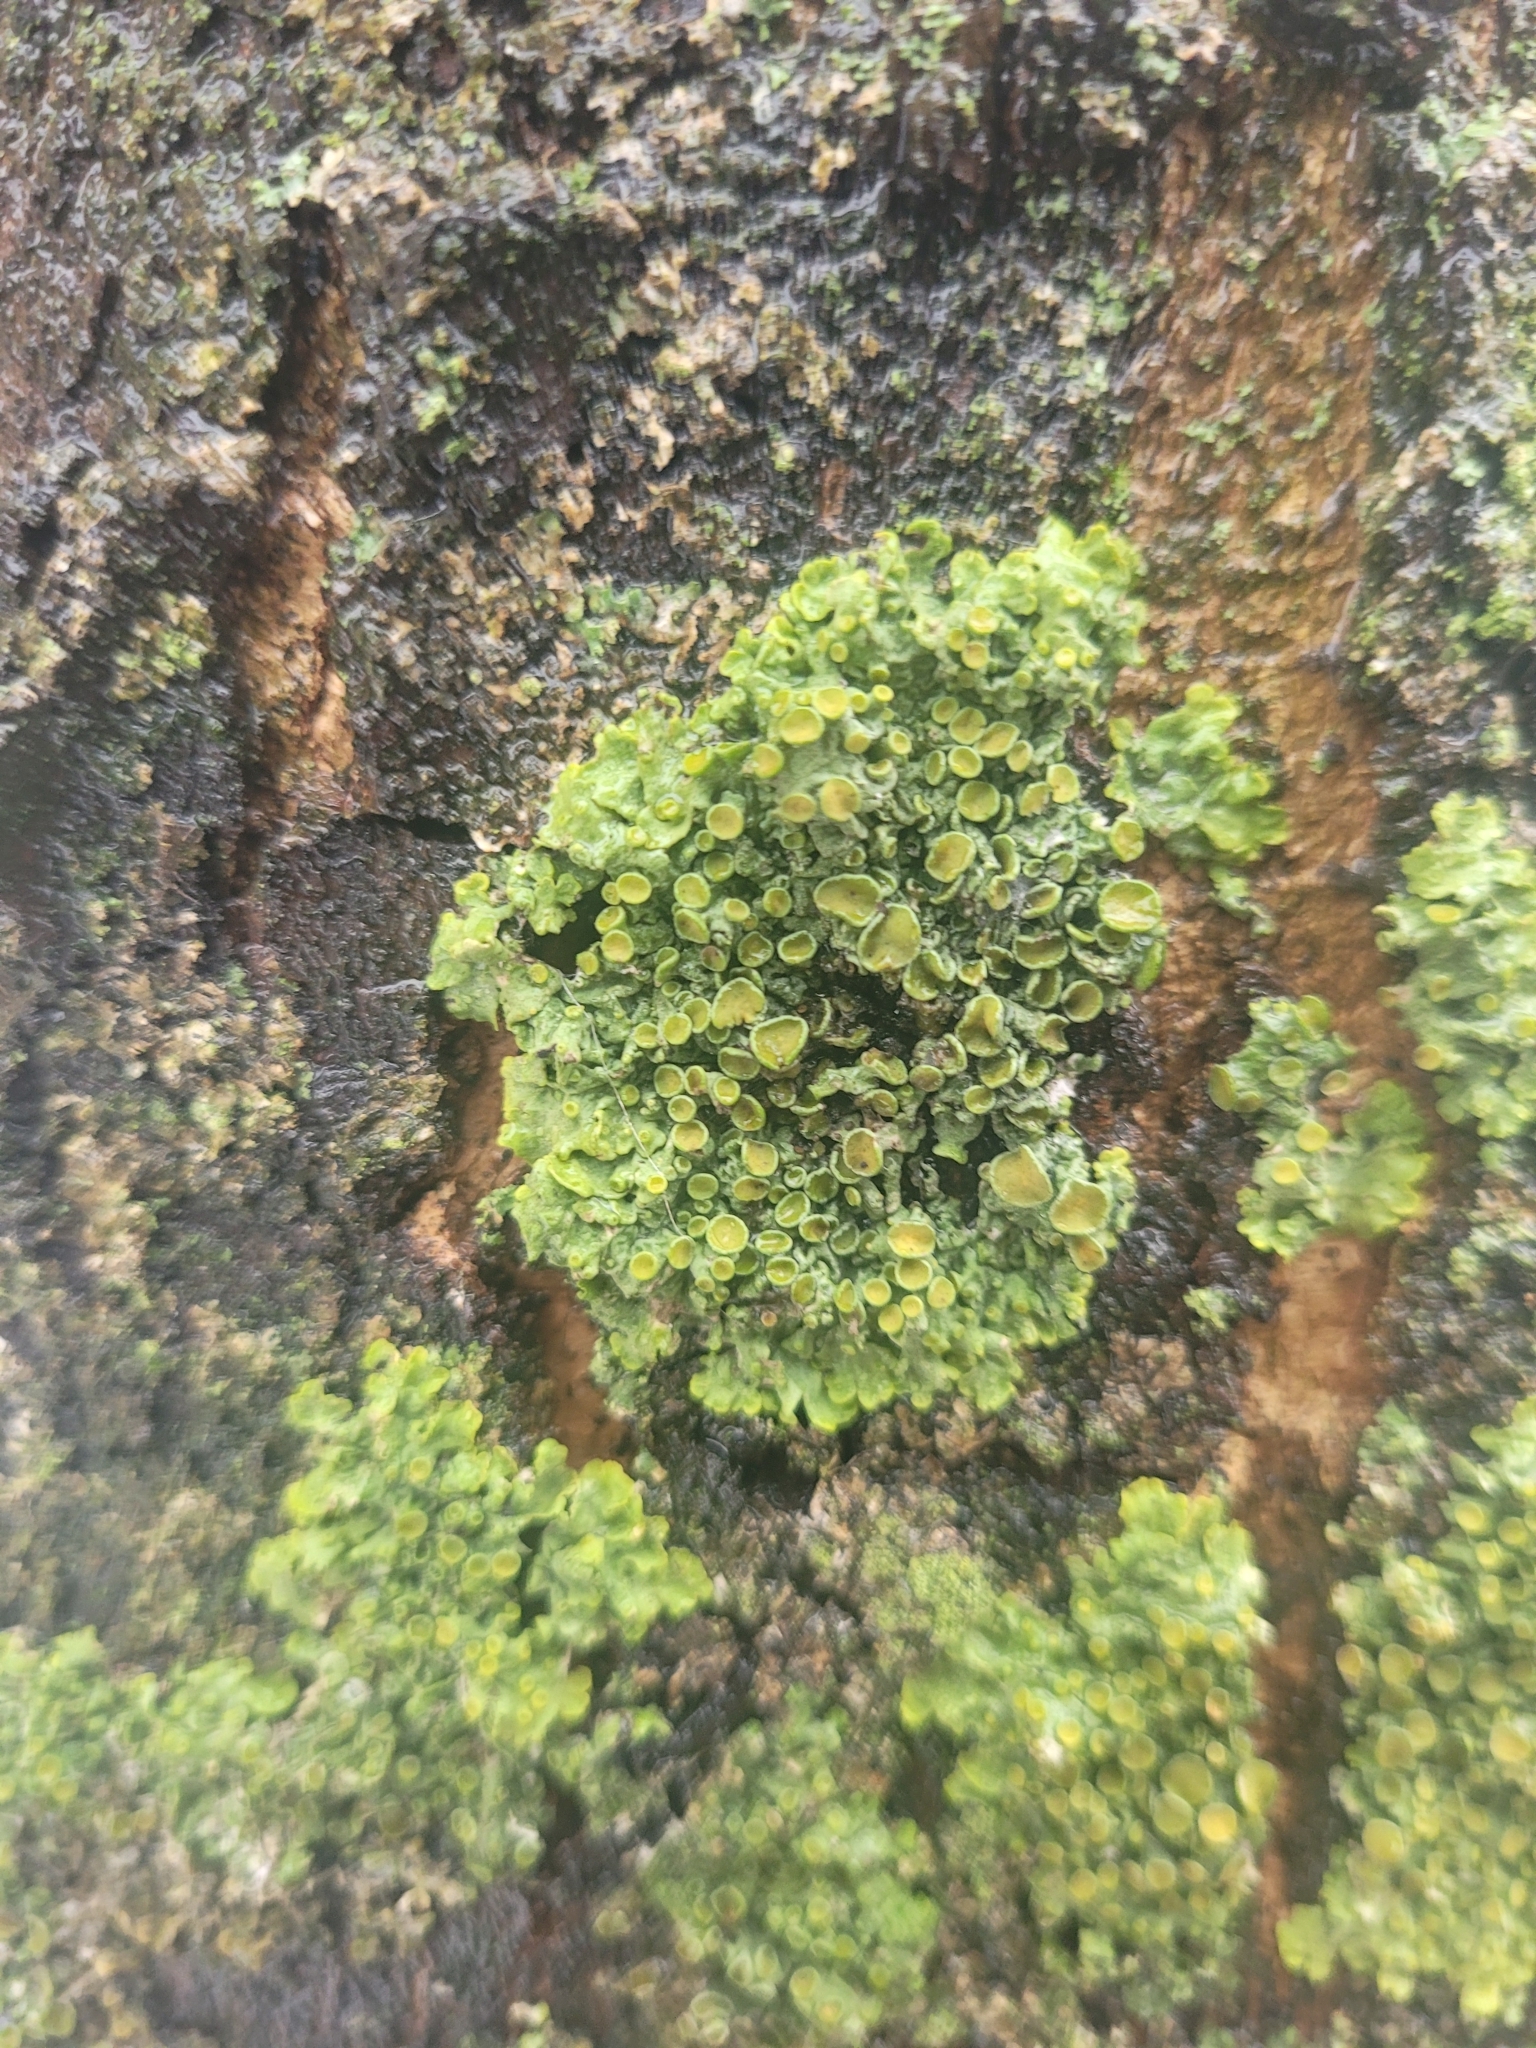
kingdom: Fungi
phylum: Ascomycota
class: Lecanoromycetes
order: Teloschistales
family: Teloschistaceae
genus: Xanthoria
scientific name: Xanthoria parietina
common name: Common orange lichen
